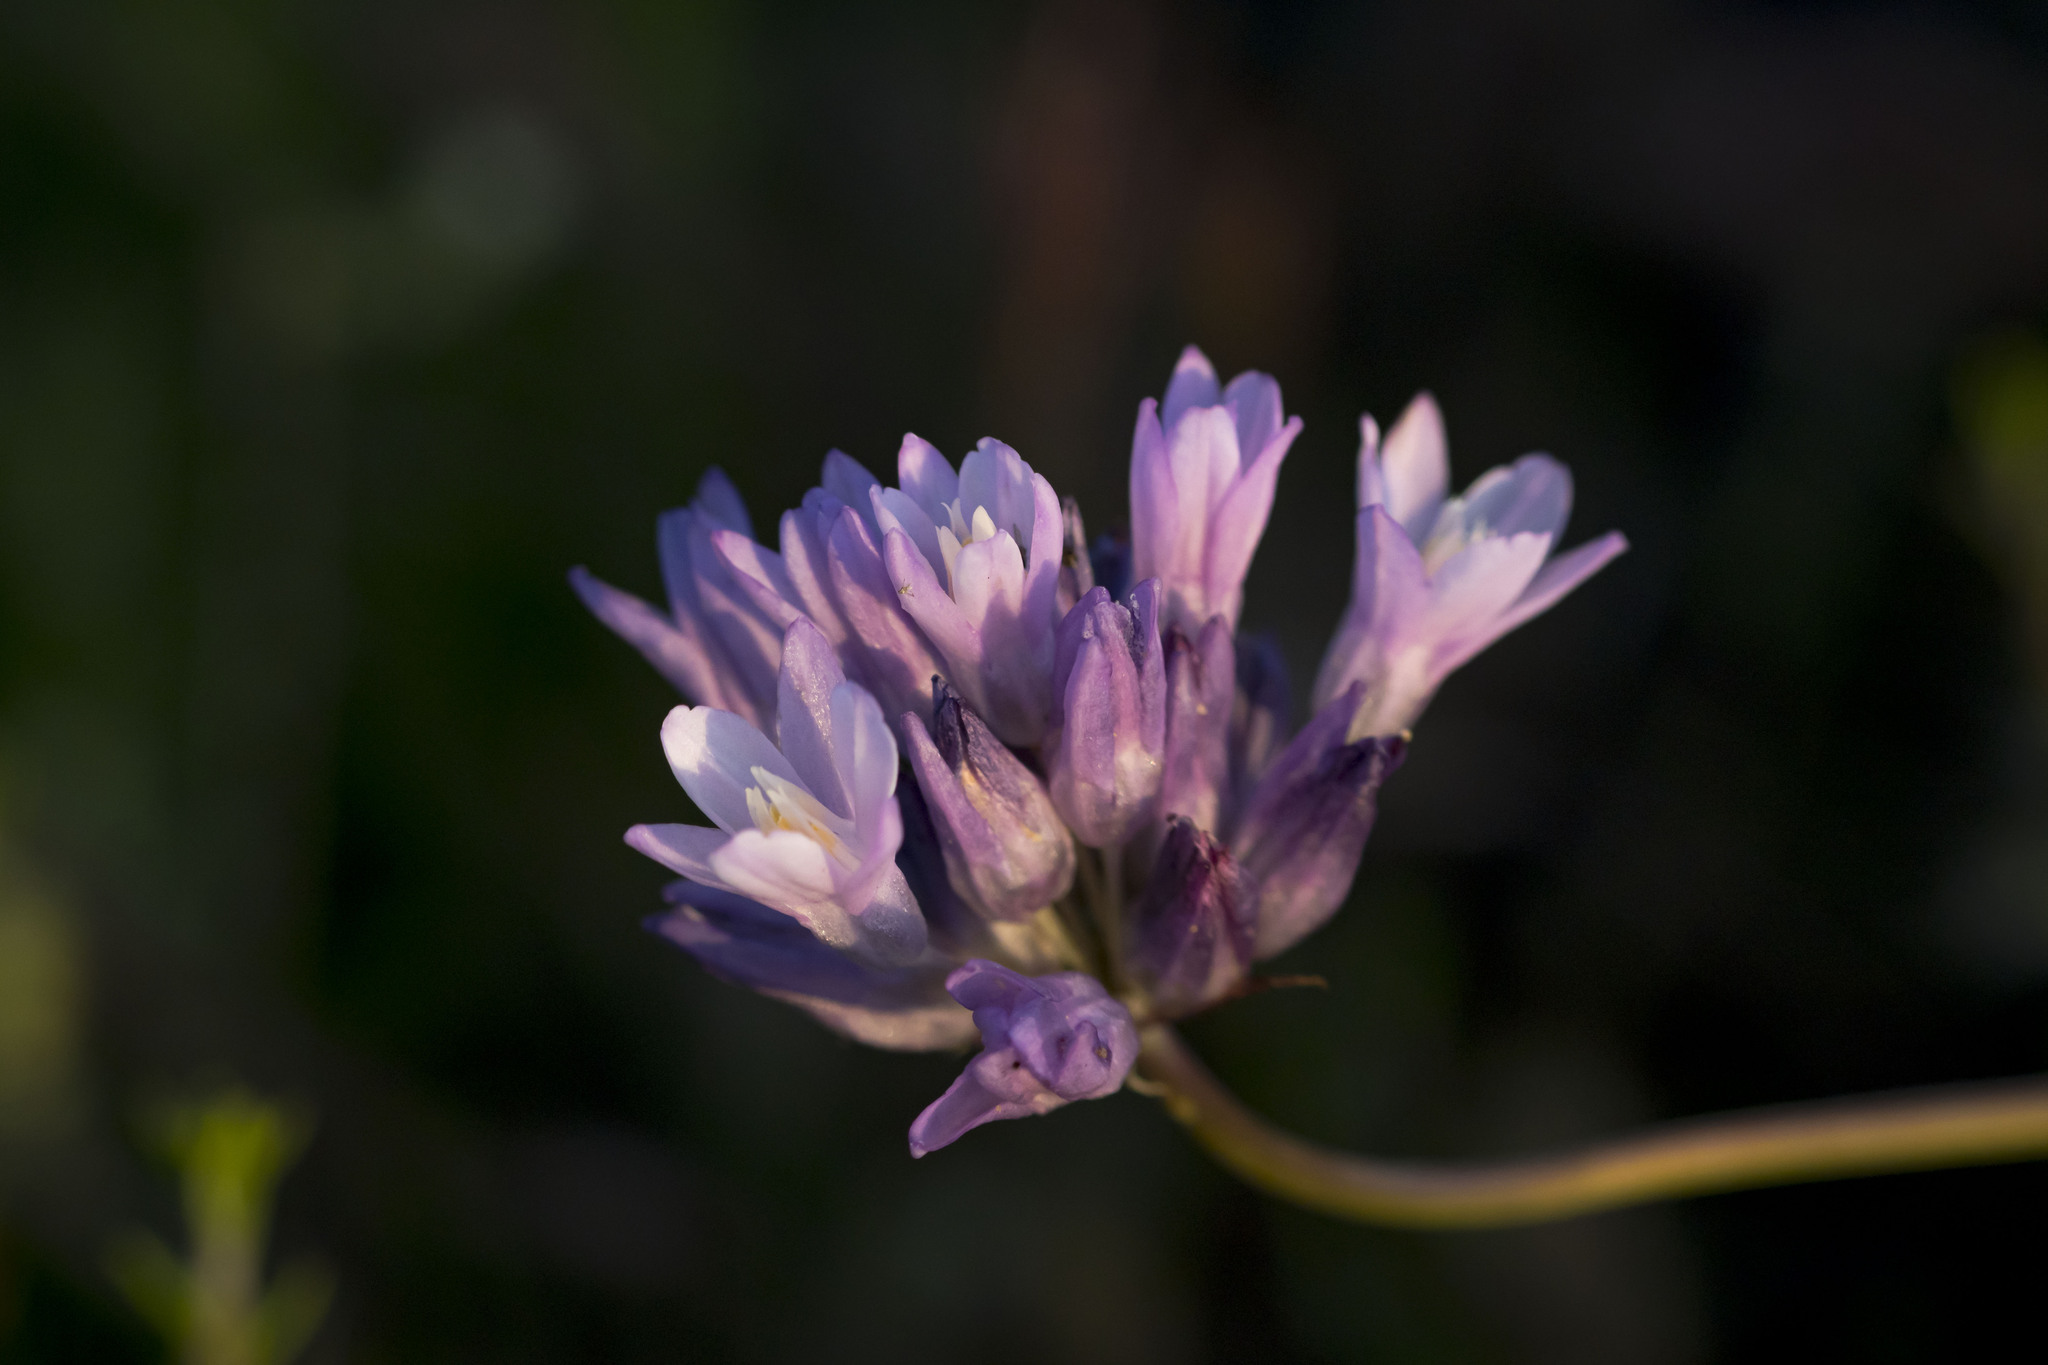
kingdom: Plantae
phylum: Tracheophyta
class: Liliopsida
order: Asparagales
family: Asparagaceae
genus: Dipterostemon
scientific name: Dipterostemon capitatus
